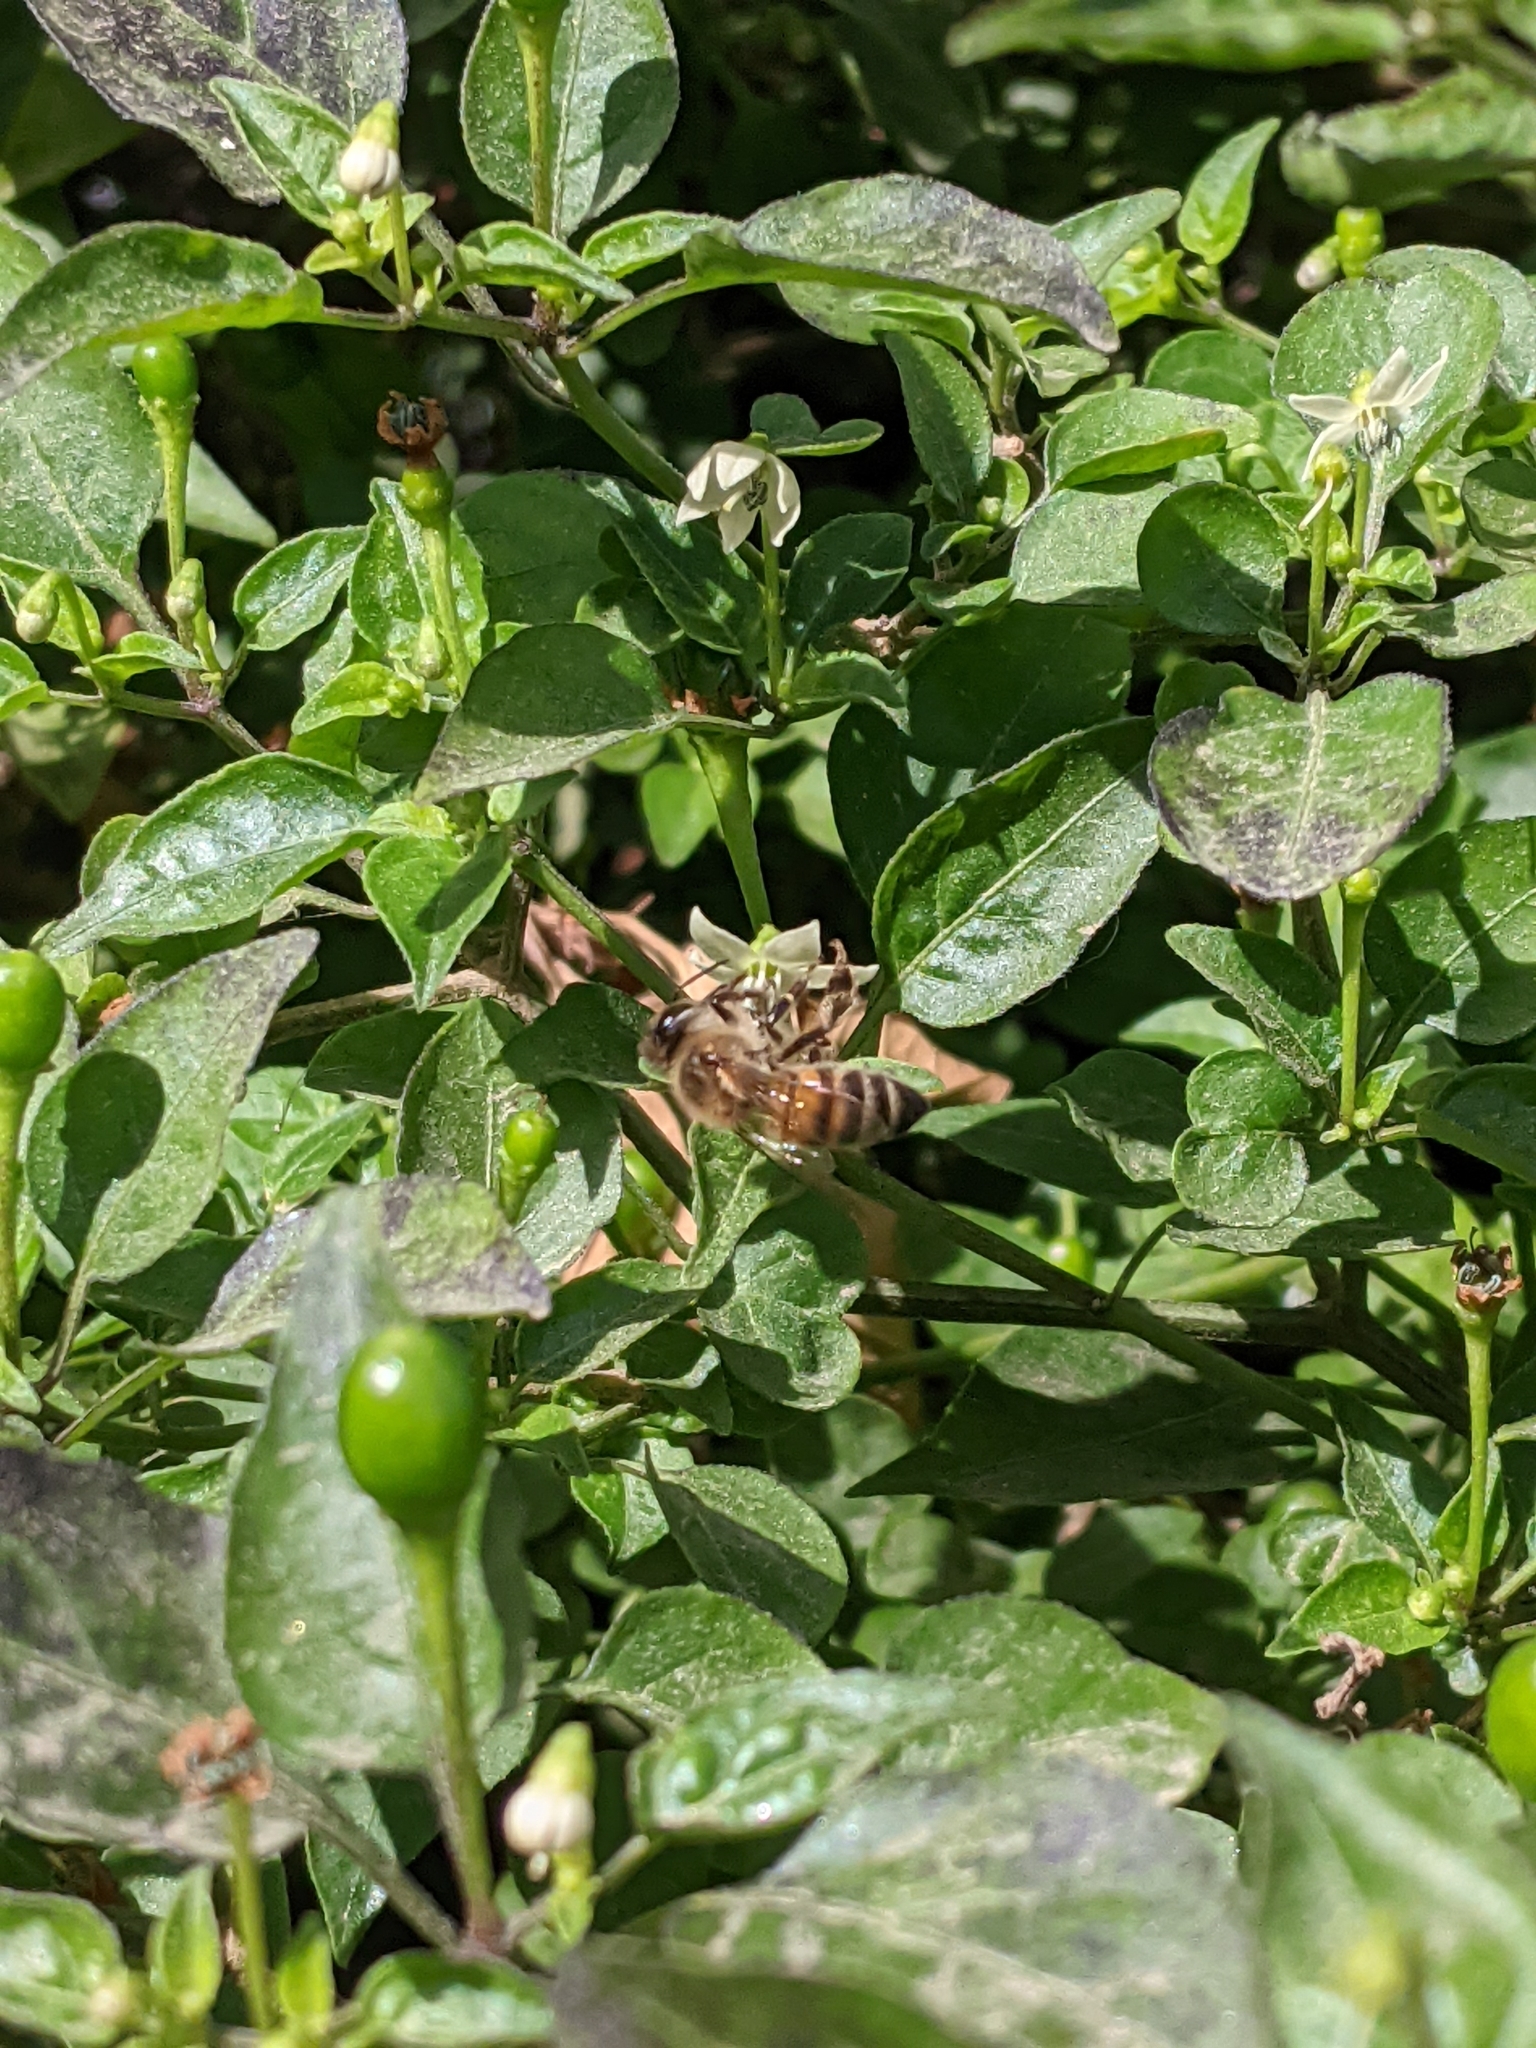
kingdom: Animalia
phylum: Arthropoda
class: Insecta
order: Hymenoptera
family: Apidae
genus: Apis
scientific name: Apis mellifera
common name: Honey bee
